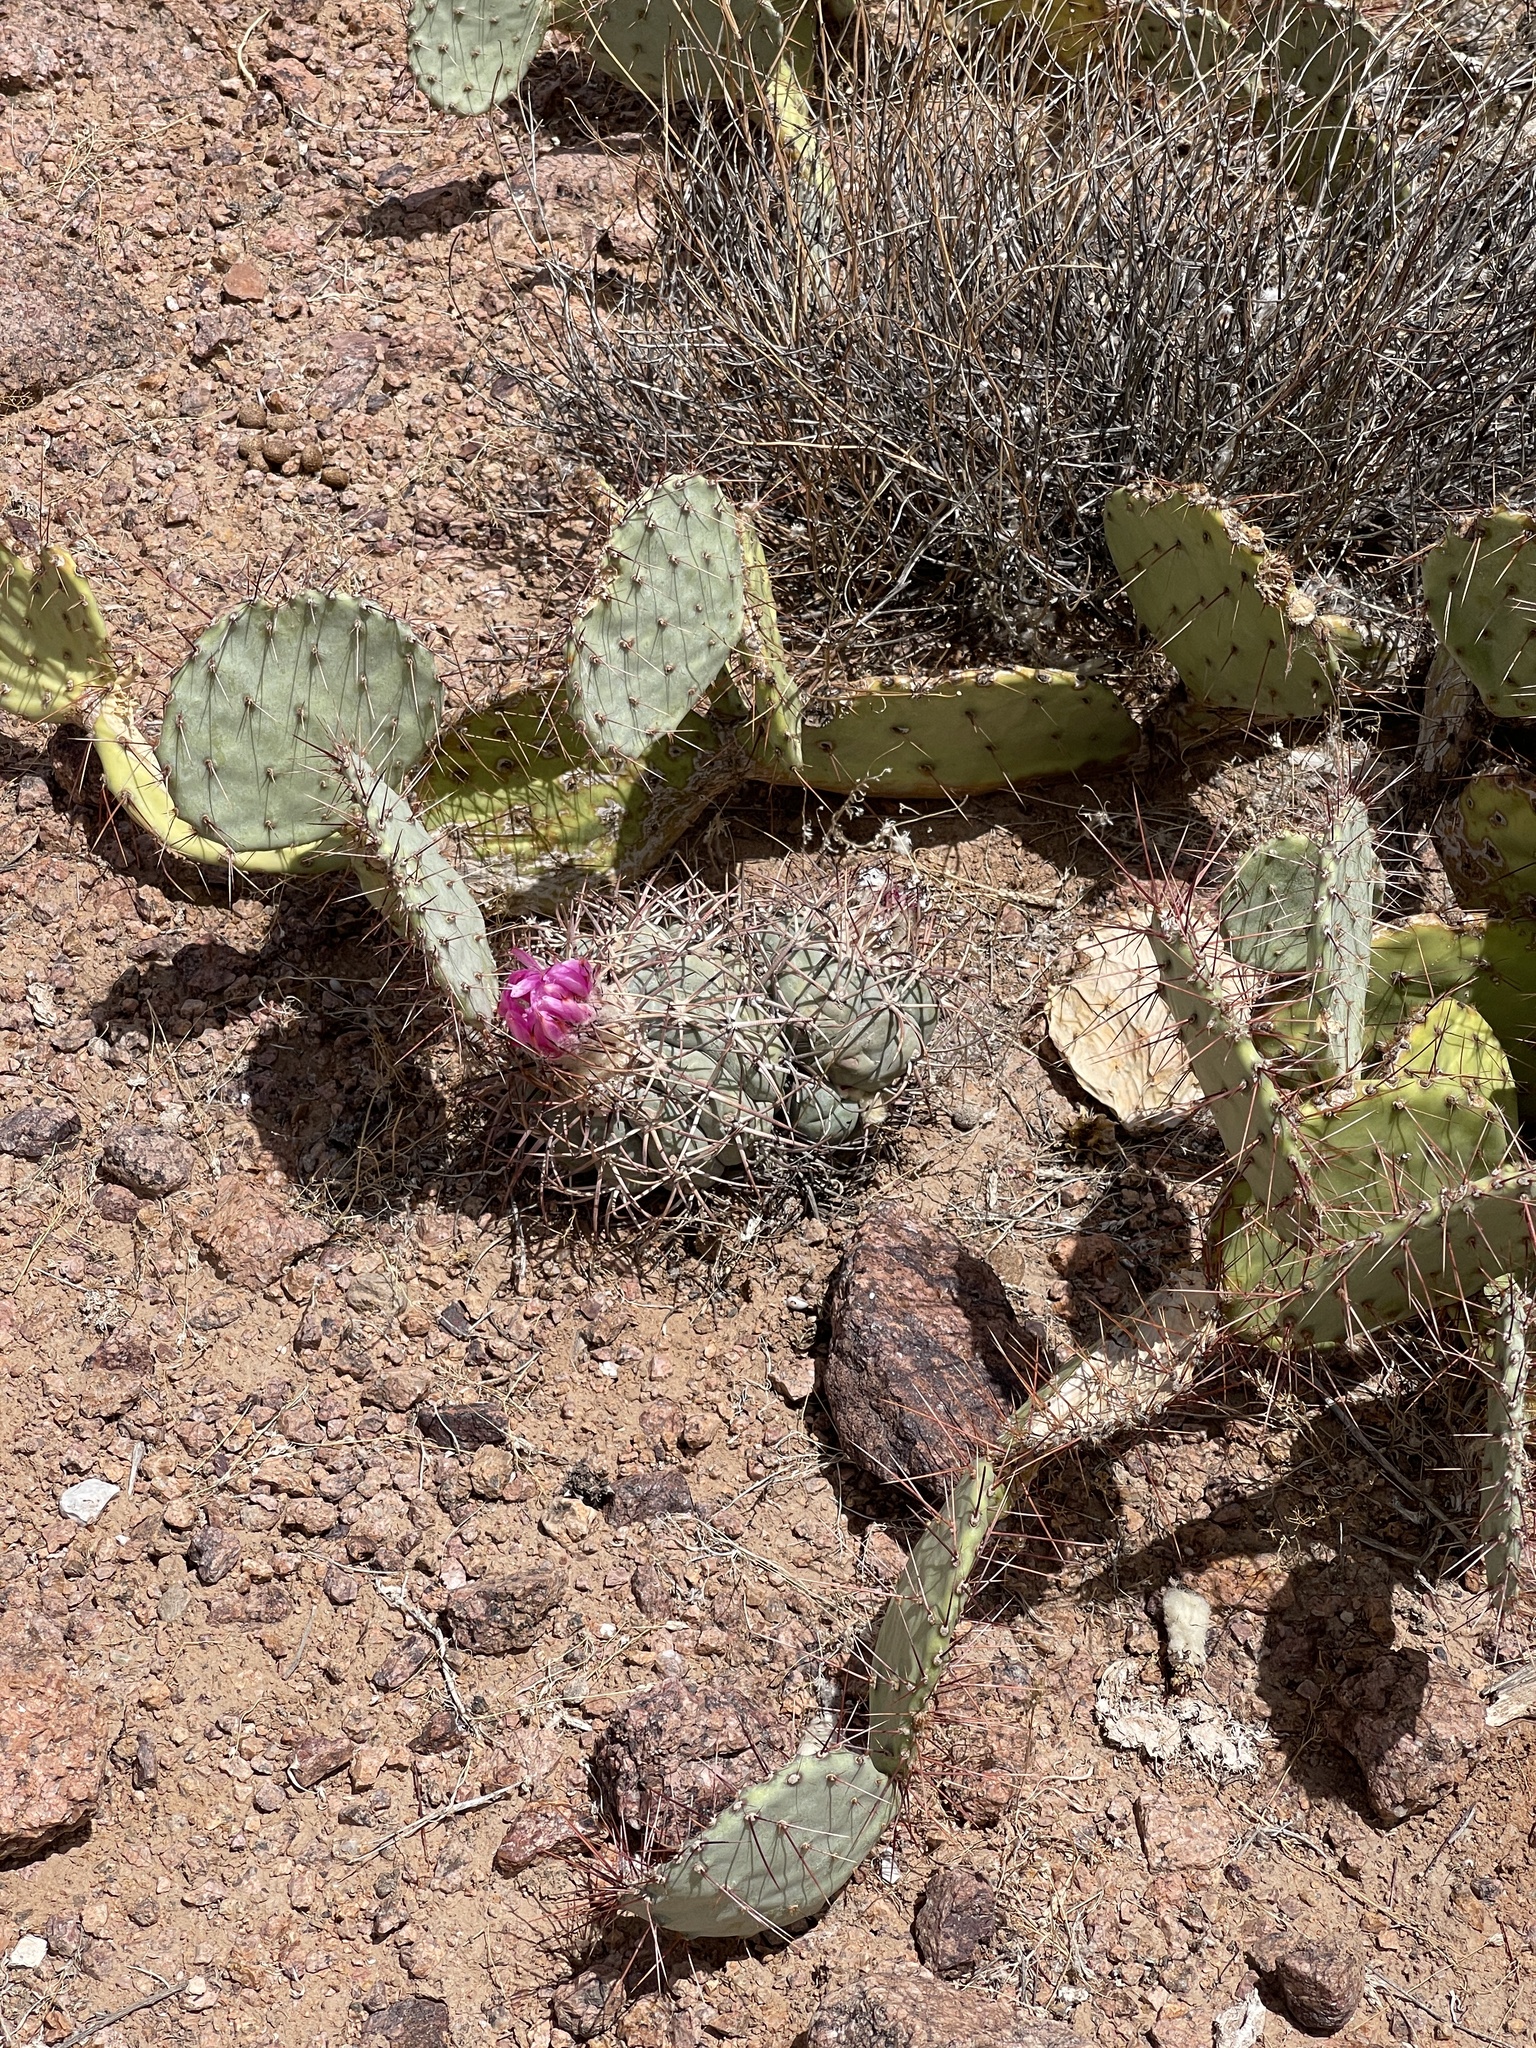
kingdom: Plantae
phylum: Tracheophyta
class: Magnoliopsida
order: Caryophyllales
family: Cactaceae
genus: Echinocactus
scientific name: Echinocactus horizonthalonius
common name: Devilshead
